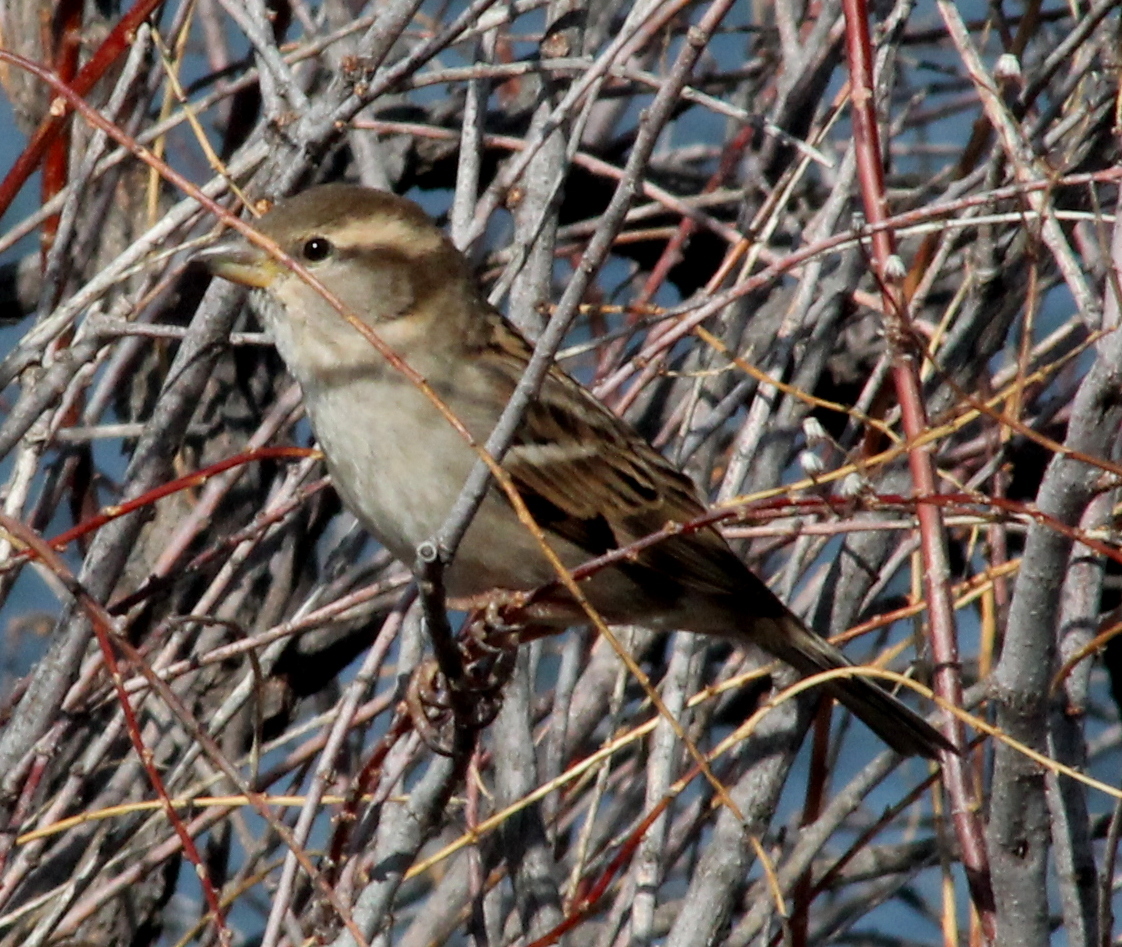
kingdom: Animalia
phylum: Chordata
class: Aves
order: Passeriformes
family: Passeridae
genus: Passer
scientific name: Passer domesticus
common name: House sparrow
